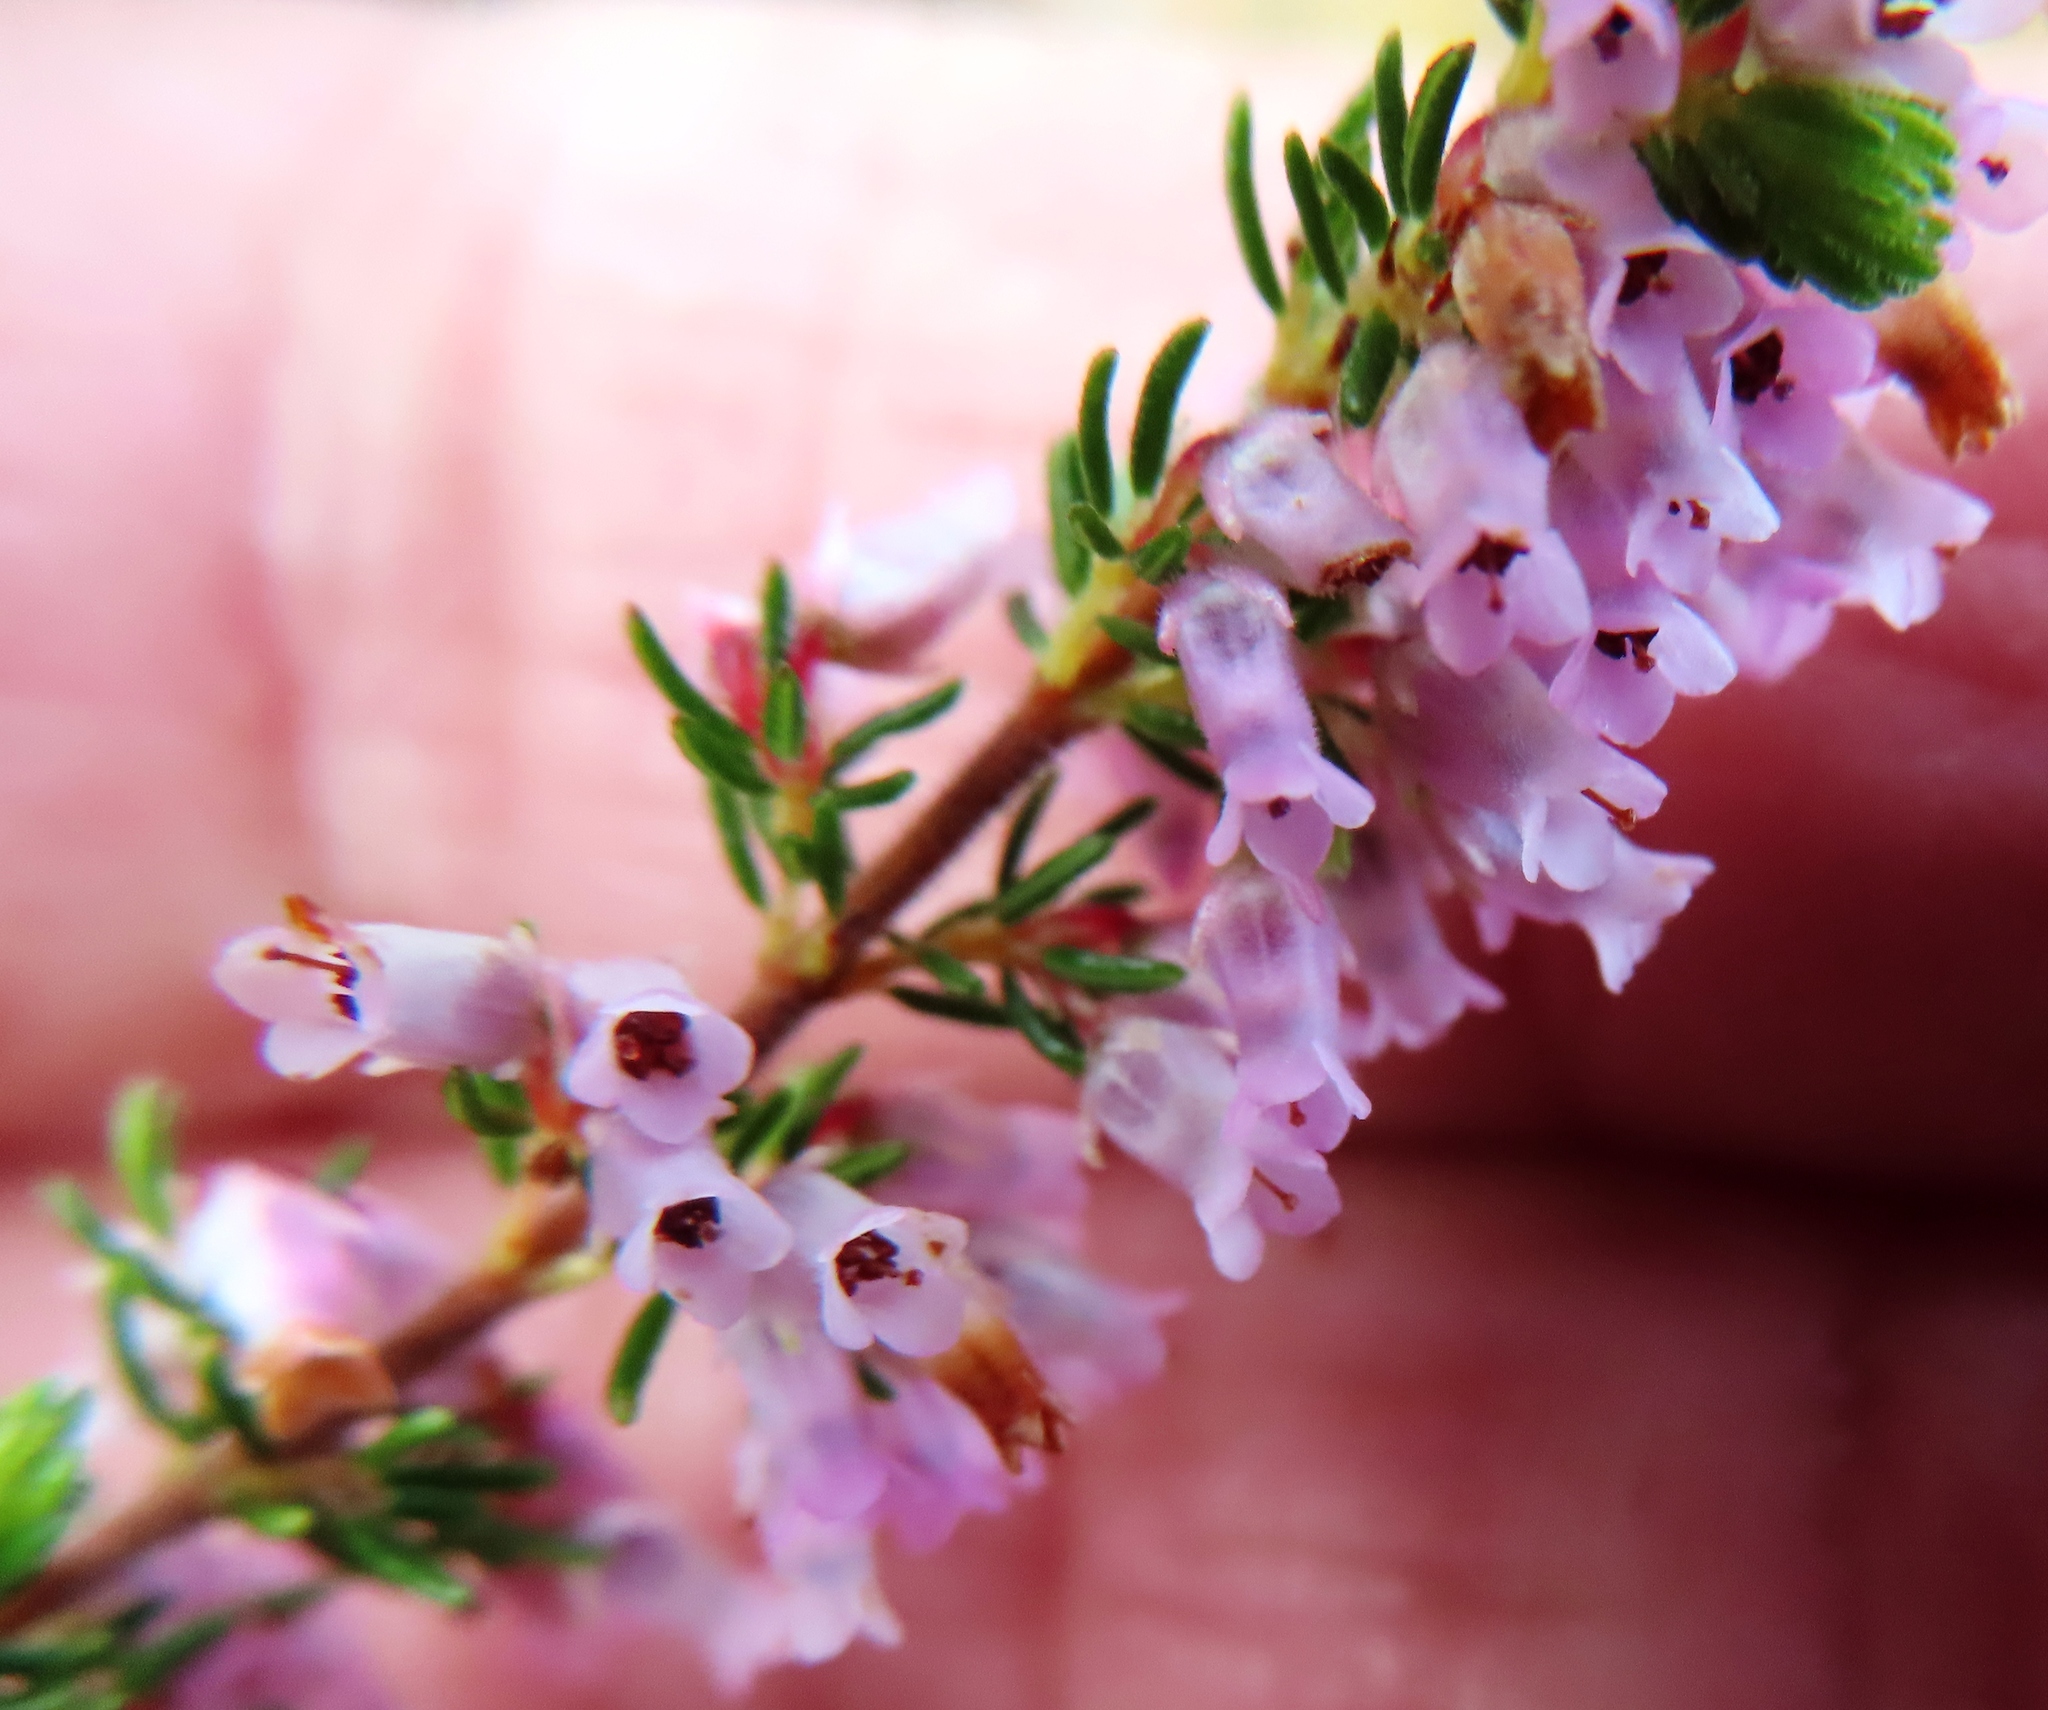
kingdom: Plantae
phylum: Tracheophyta
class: Magnoliopsida
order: Ericales
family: Ericaceae
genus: Erica
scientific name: Erica intervallaris
